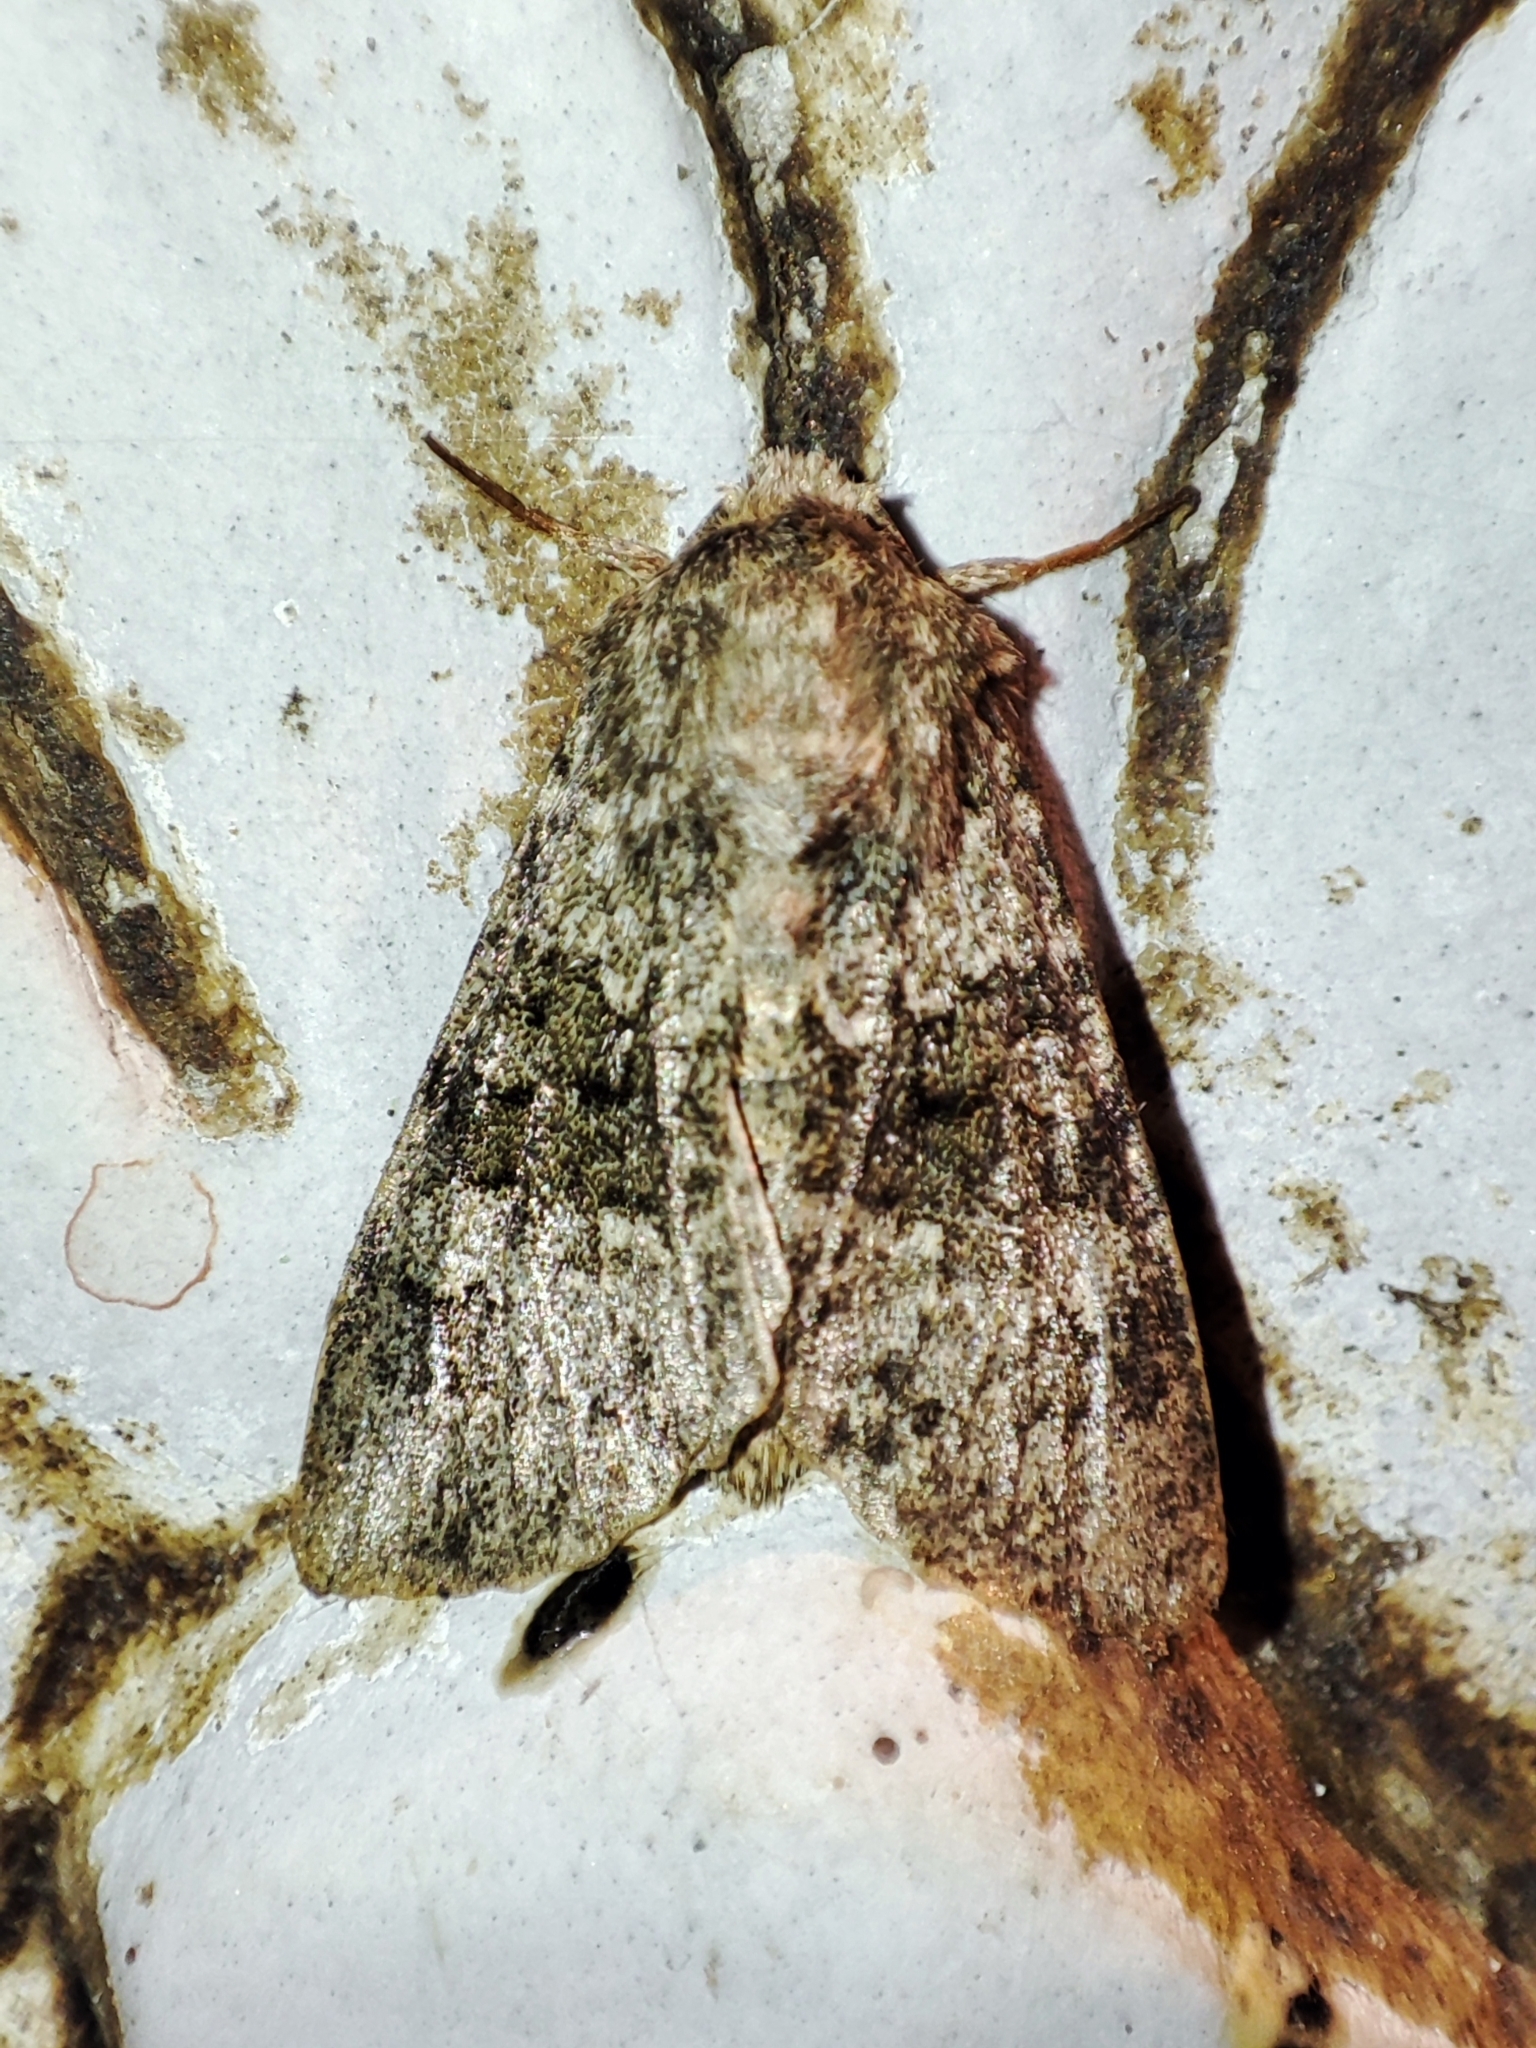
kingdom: Animalia
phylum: Arthropoda
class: Insecta
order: Lepidoptera
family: Noctuidae
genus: Hecatera
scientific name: Hecatera dysodea
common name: Small ranunculus
